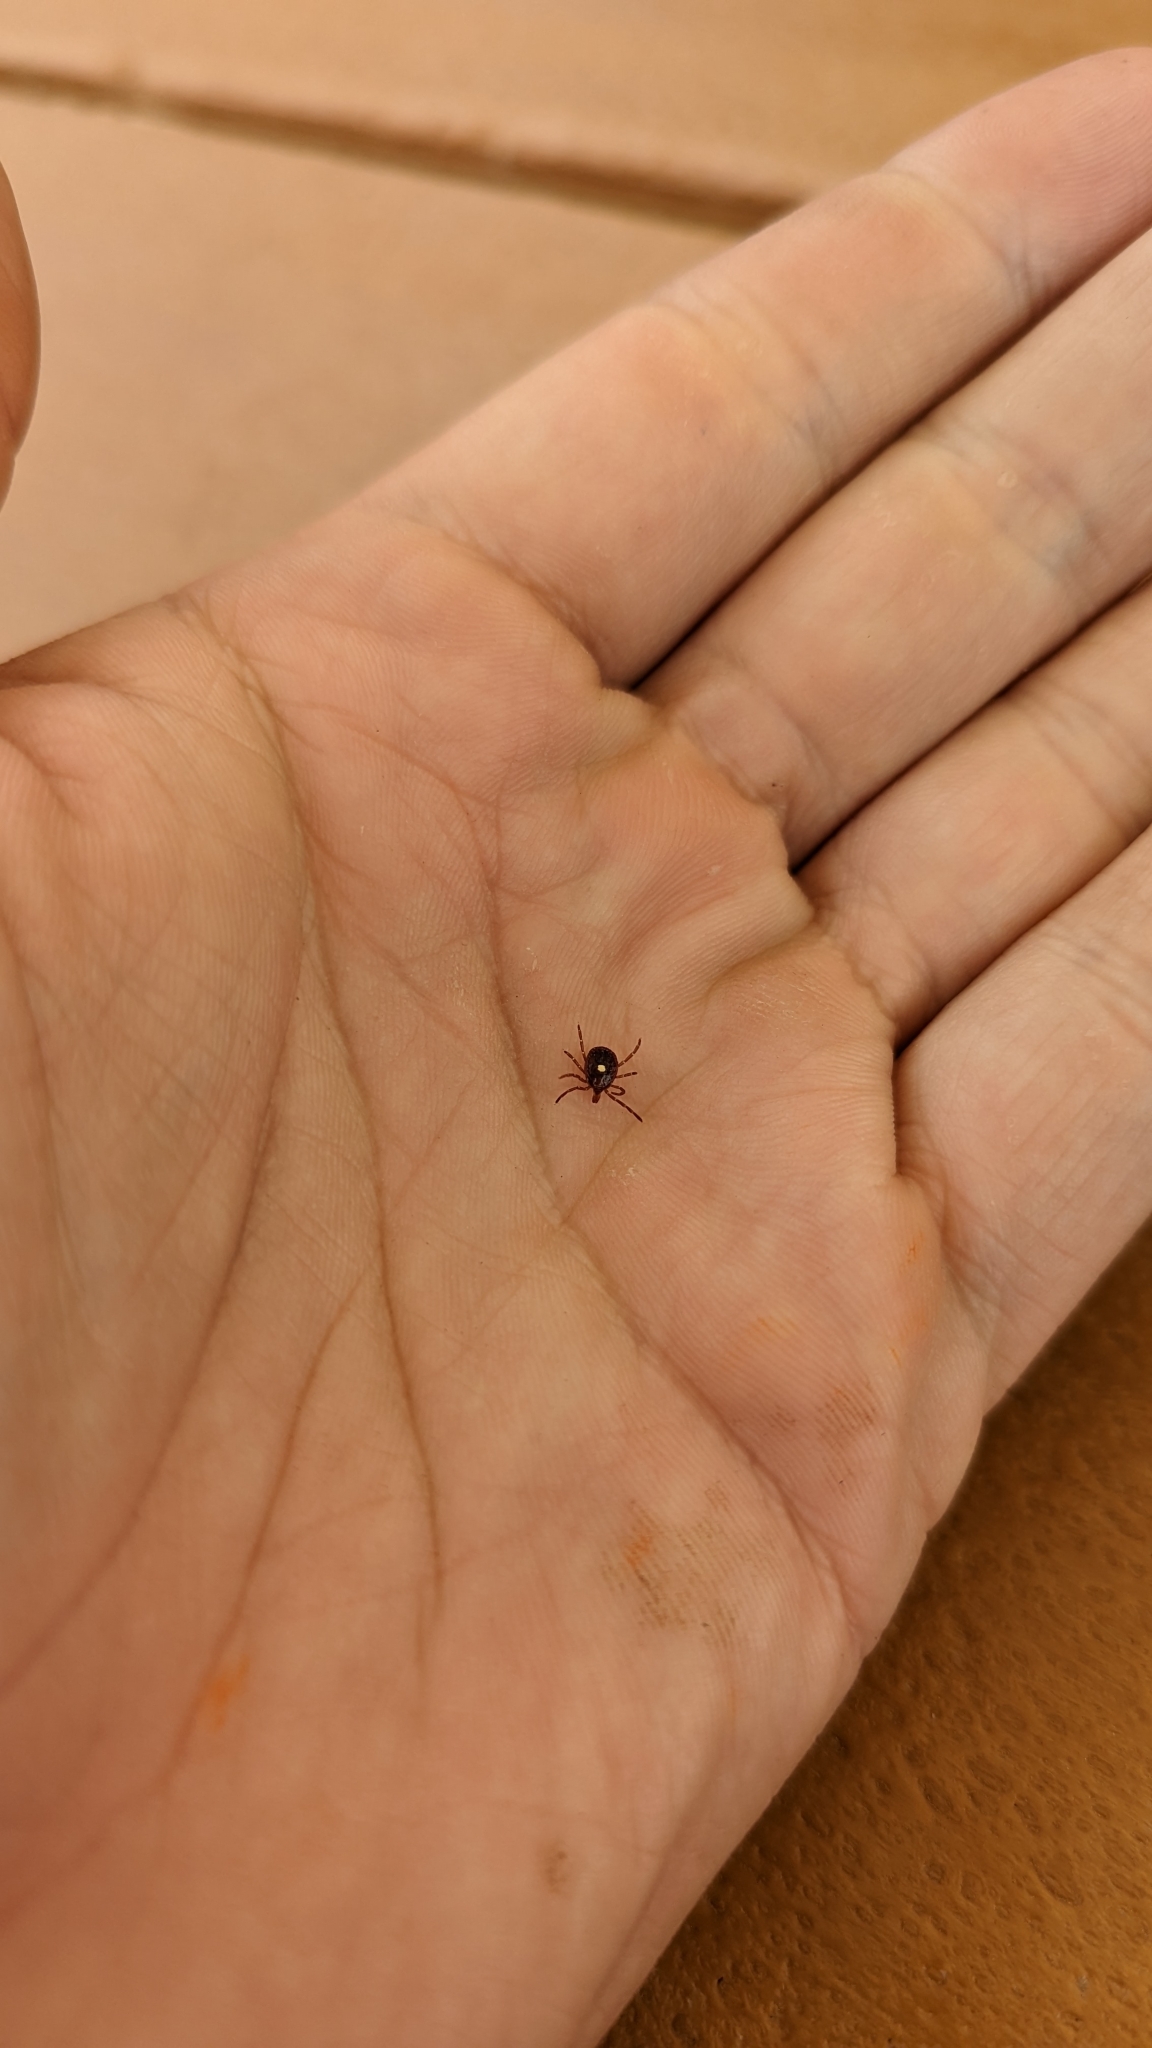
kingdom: Animalia
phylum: Arthropoda
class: Arachnida
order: Ixodida
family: Ixodidae
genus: Amblyomma
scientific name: Amblyomma americanum
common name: Lone star tick
